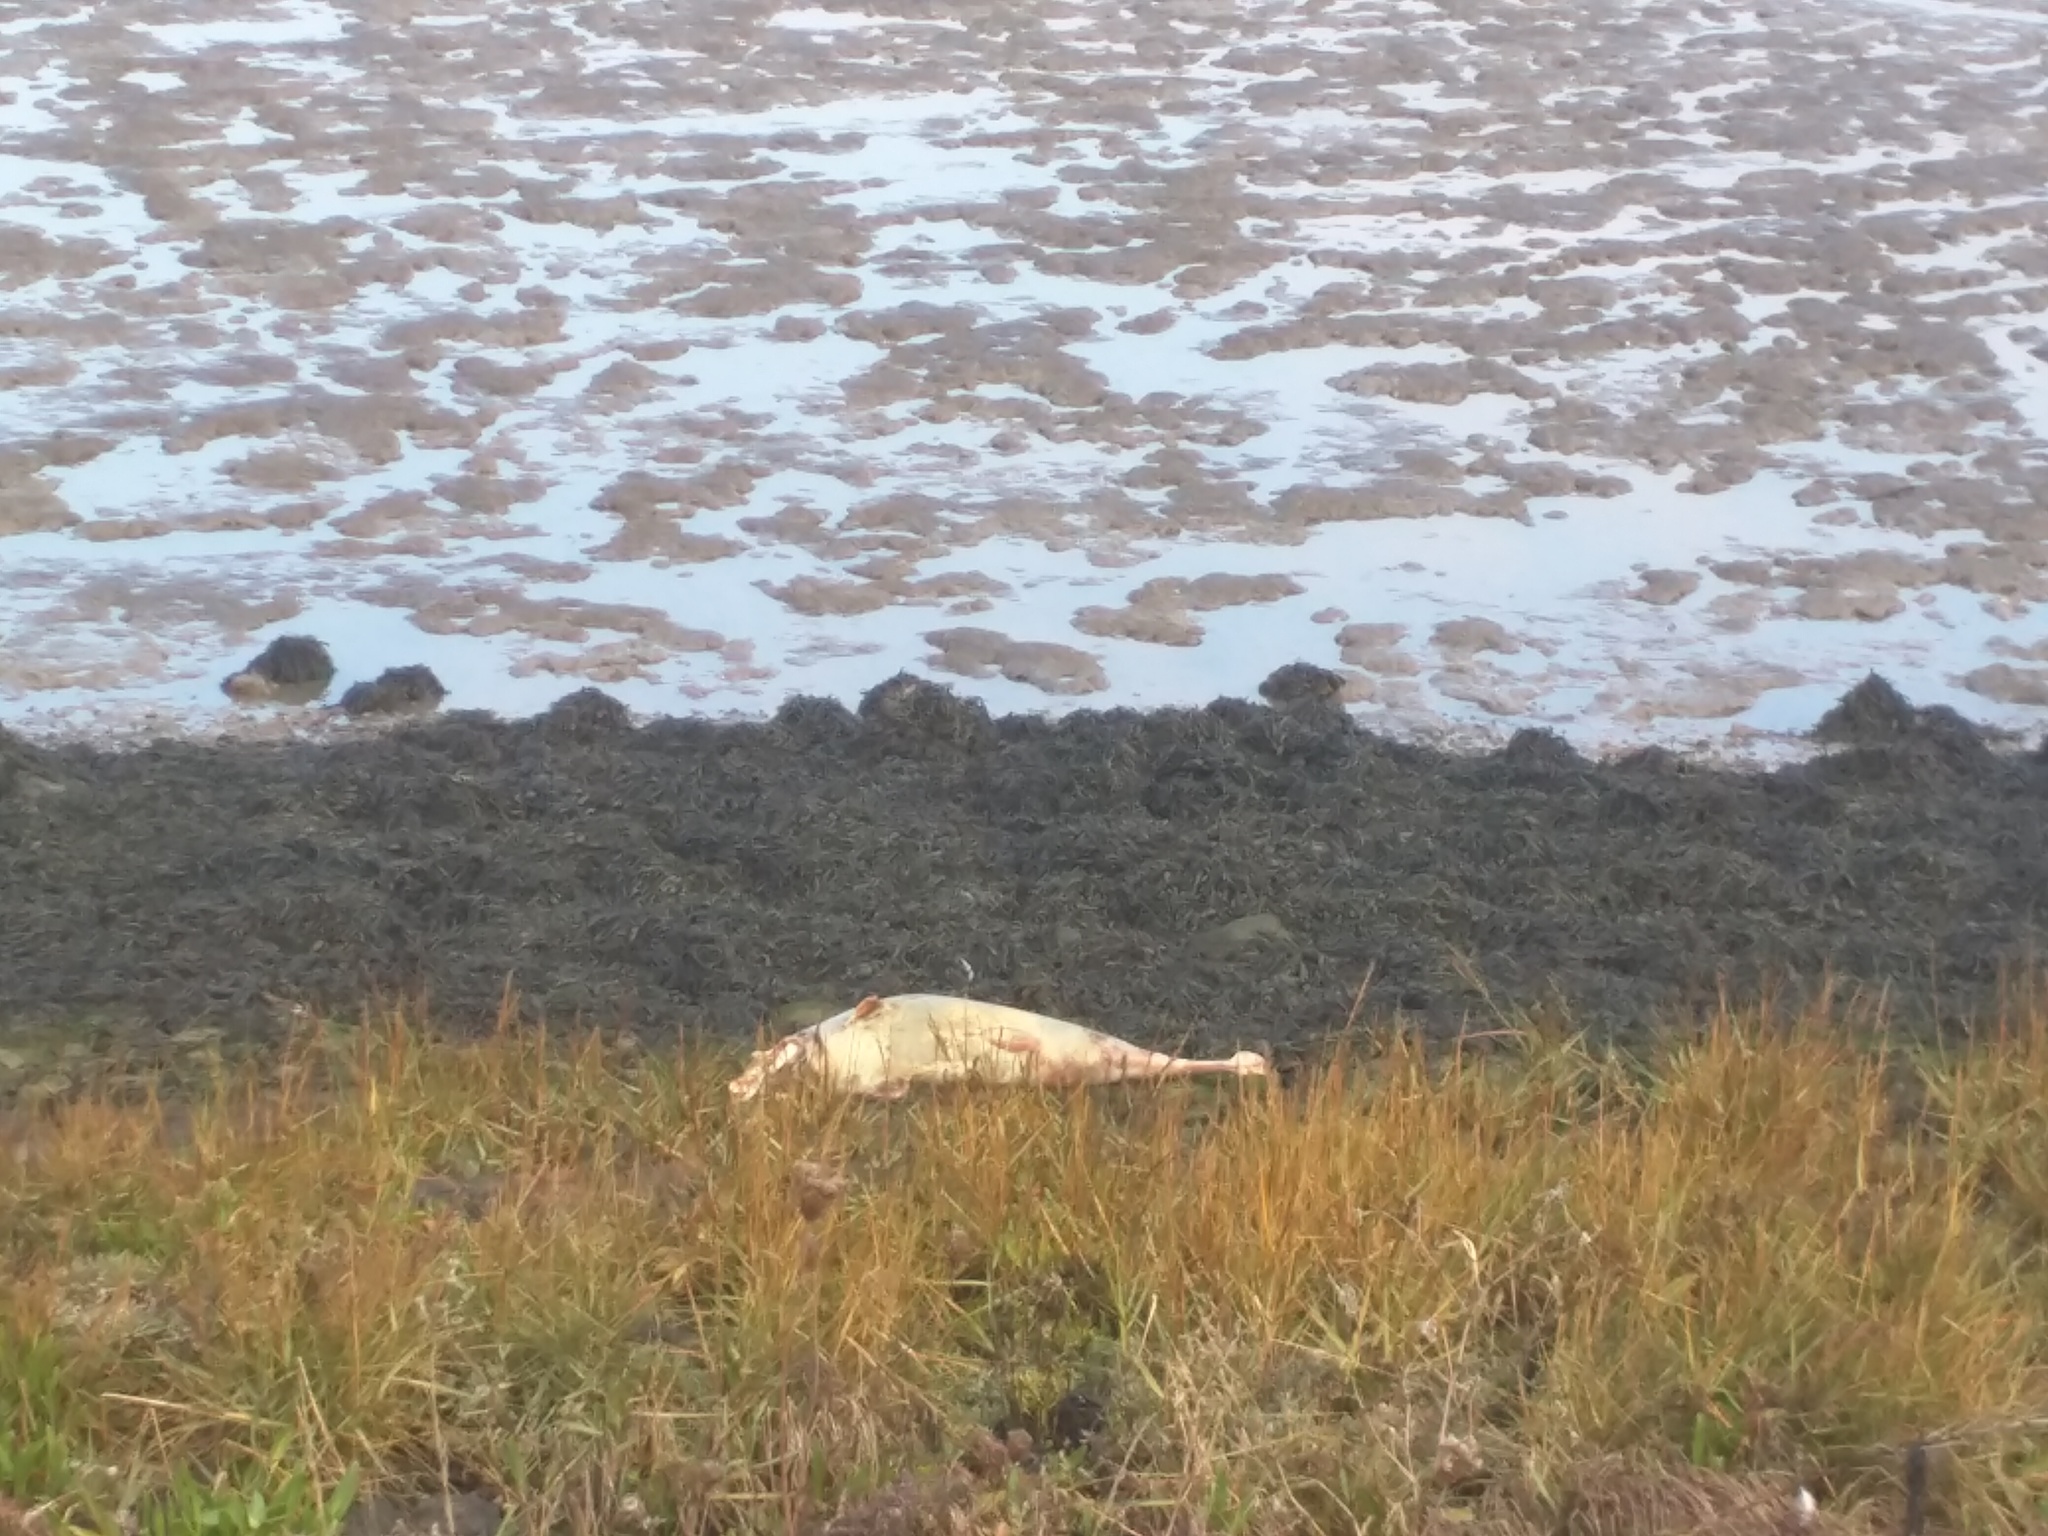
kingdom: Animalia
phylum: Chordata
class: Mammalia
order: Cetacea
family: Phocoenidae
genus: Phocoena
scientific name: Phocoena phocoena
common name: Harbor porpoise
